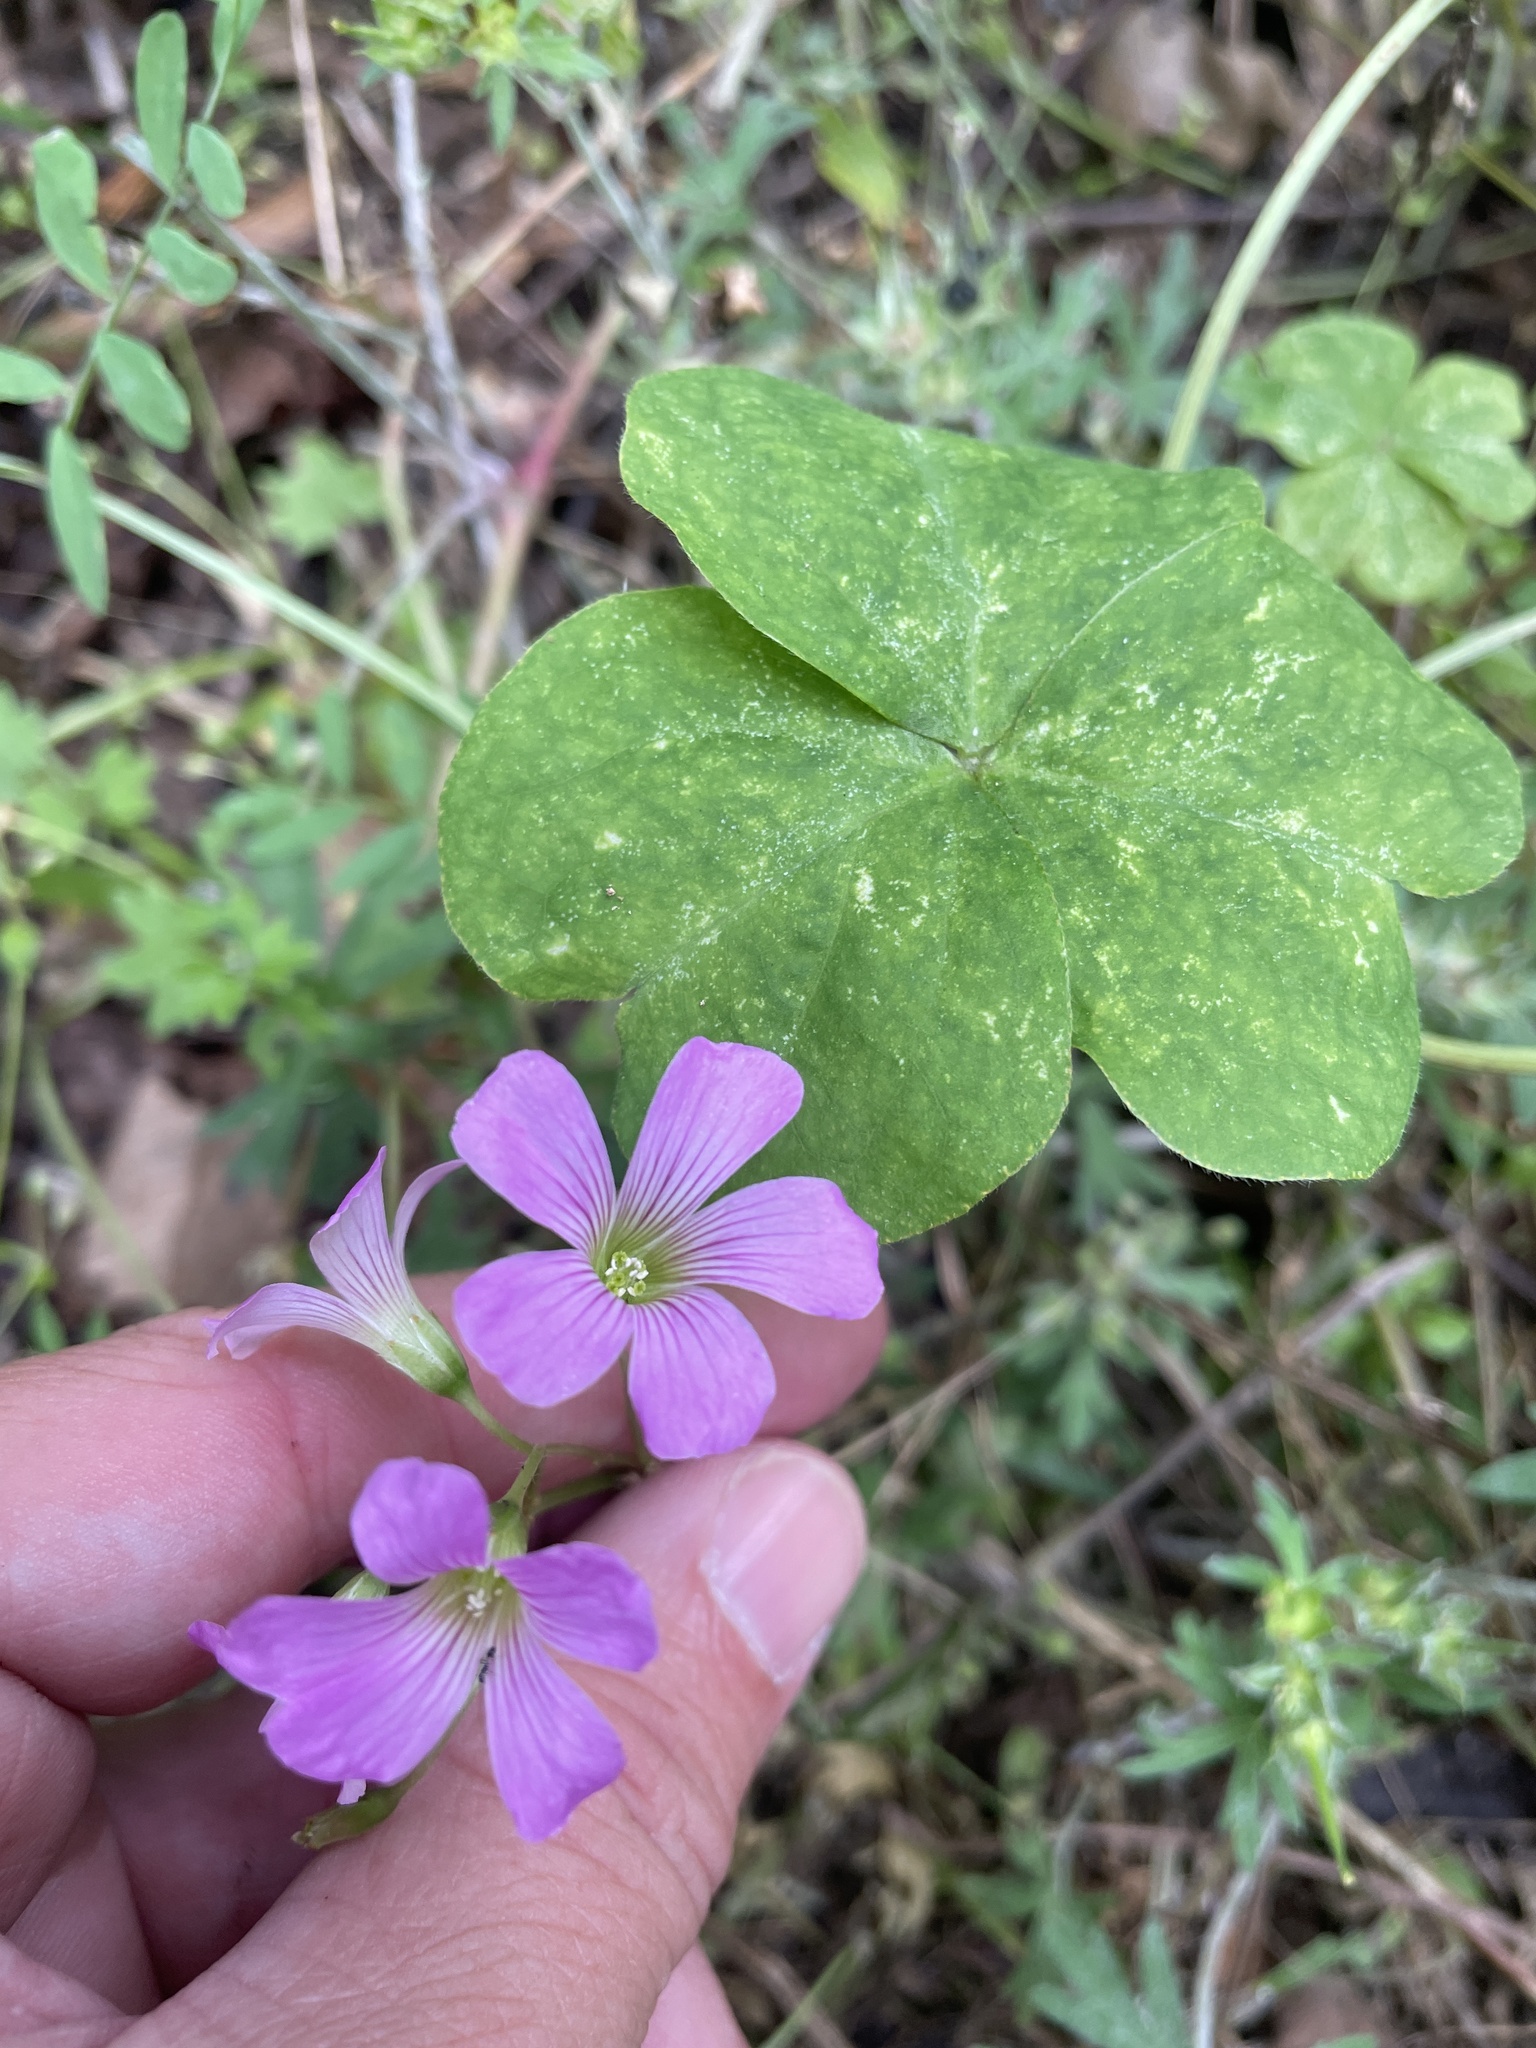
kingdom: Plantae
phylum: Tracheophyta
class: Magnoliopsida
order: Oxalidales
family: Oxalidaceae
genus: Oxalis
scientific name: Oxalis debilis
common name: Large-flowered pink-sorrel
